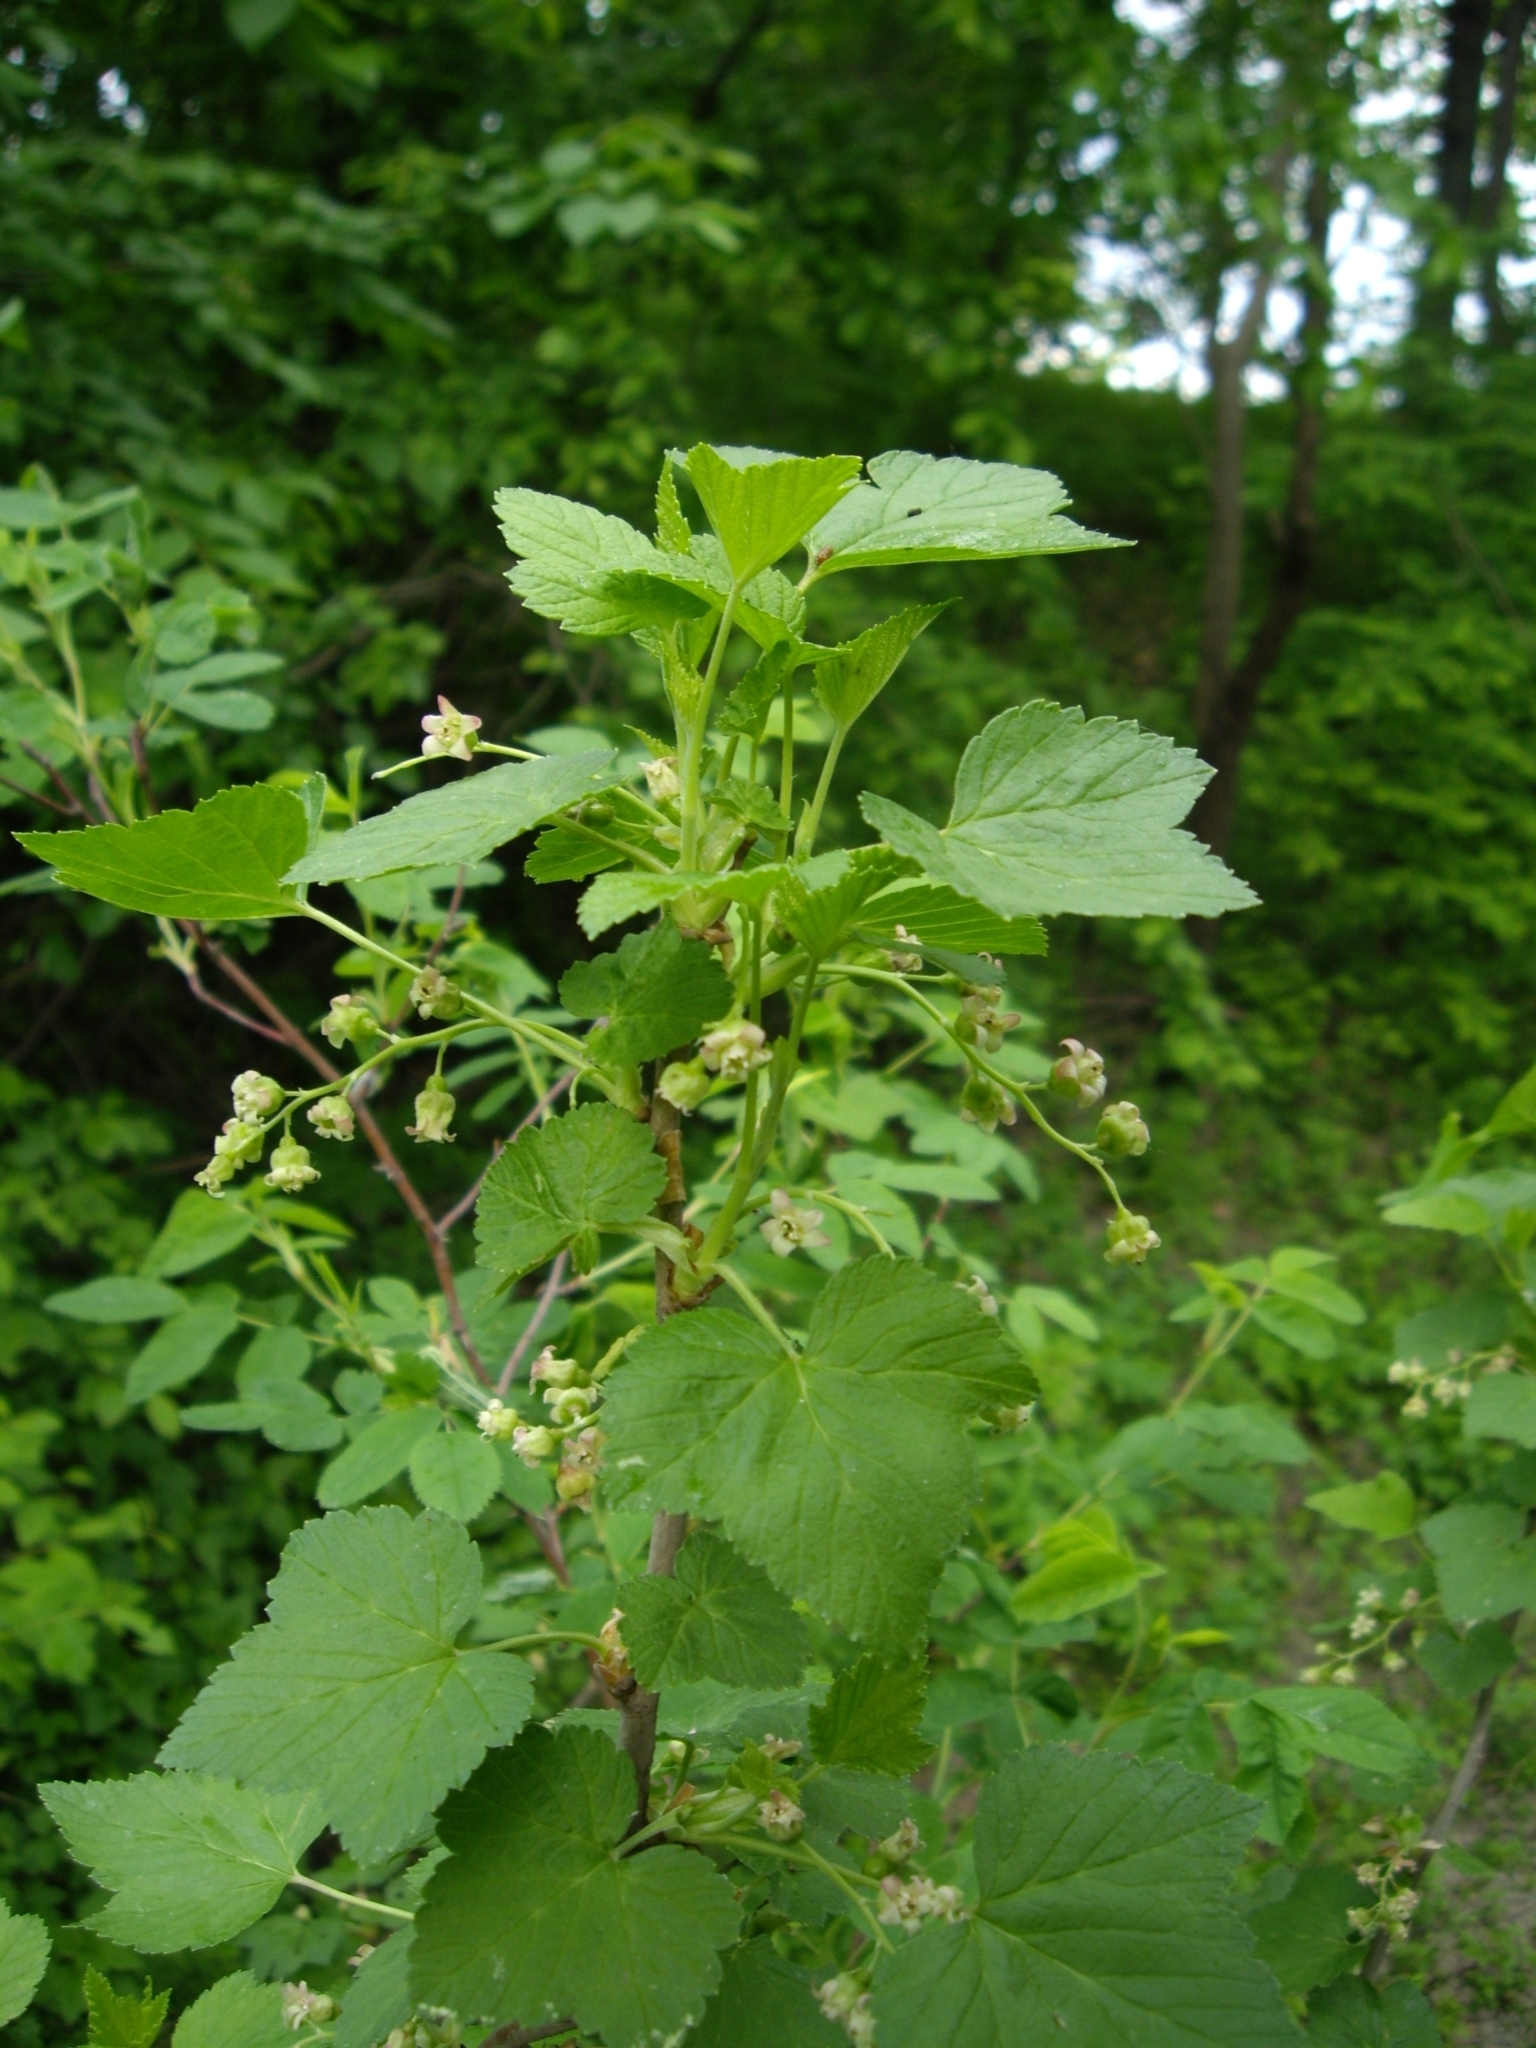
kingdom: Plantae
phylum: Tracheophyta
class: Magnoliopsida
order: Saxifragales
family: Grossulariaceae
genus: Ribes
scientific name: Ribes nigrum
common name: Black currant
